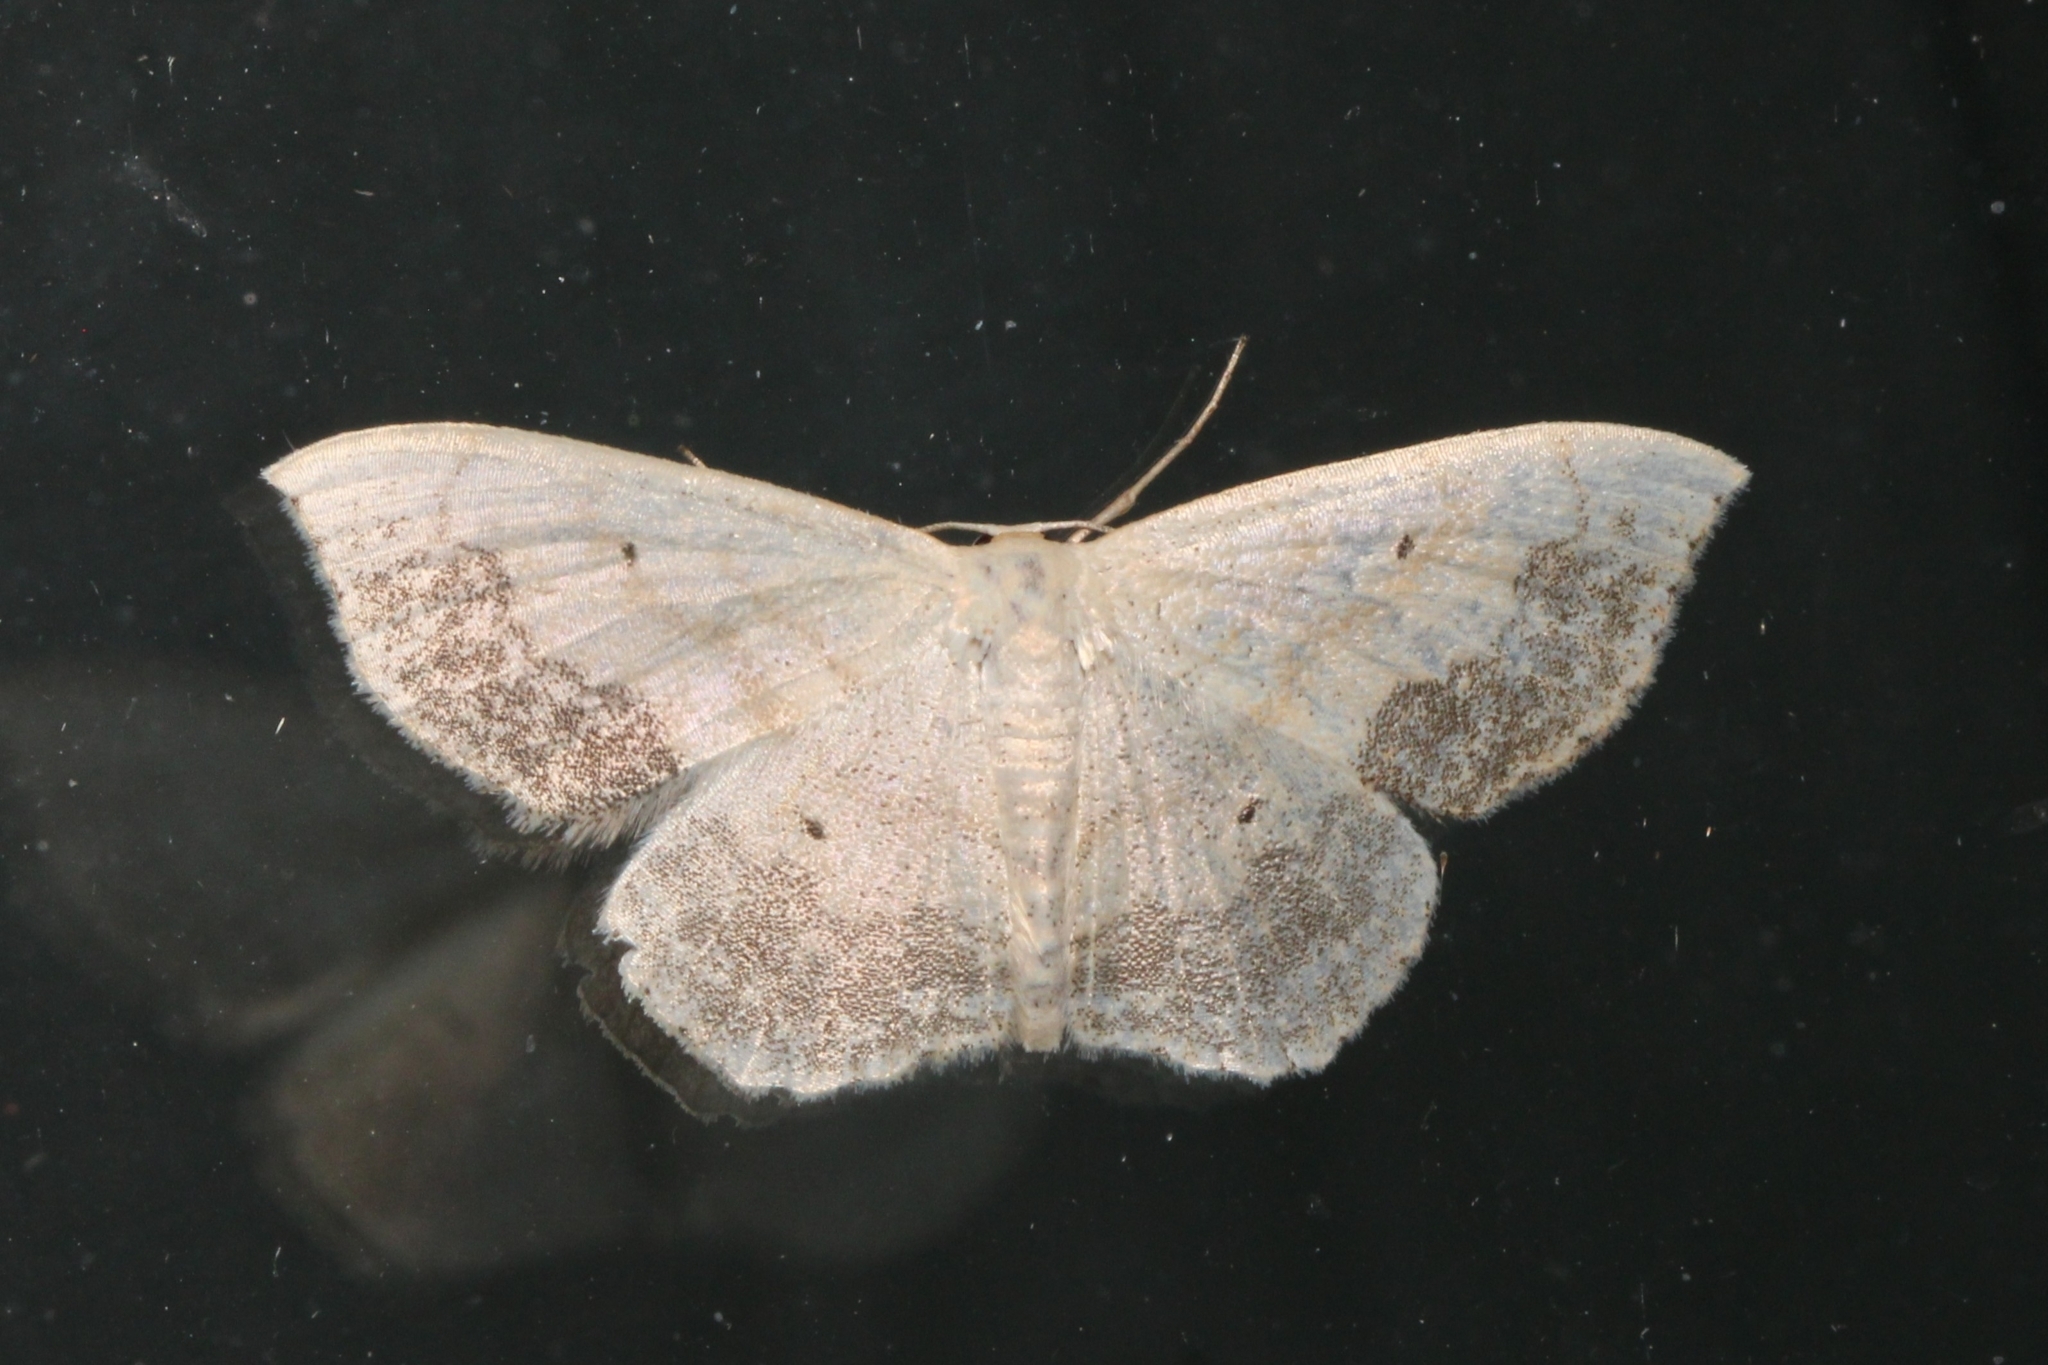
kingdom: Animalia
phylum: Arthropoda
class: Insecta
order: Lepidoptera
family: Geometridae
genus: Scopula
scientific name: Scopula limboundata
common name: Large lace border
